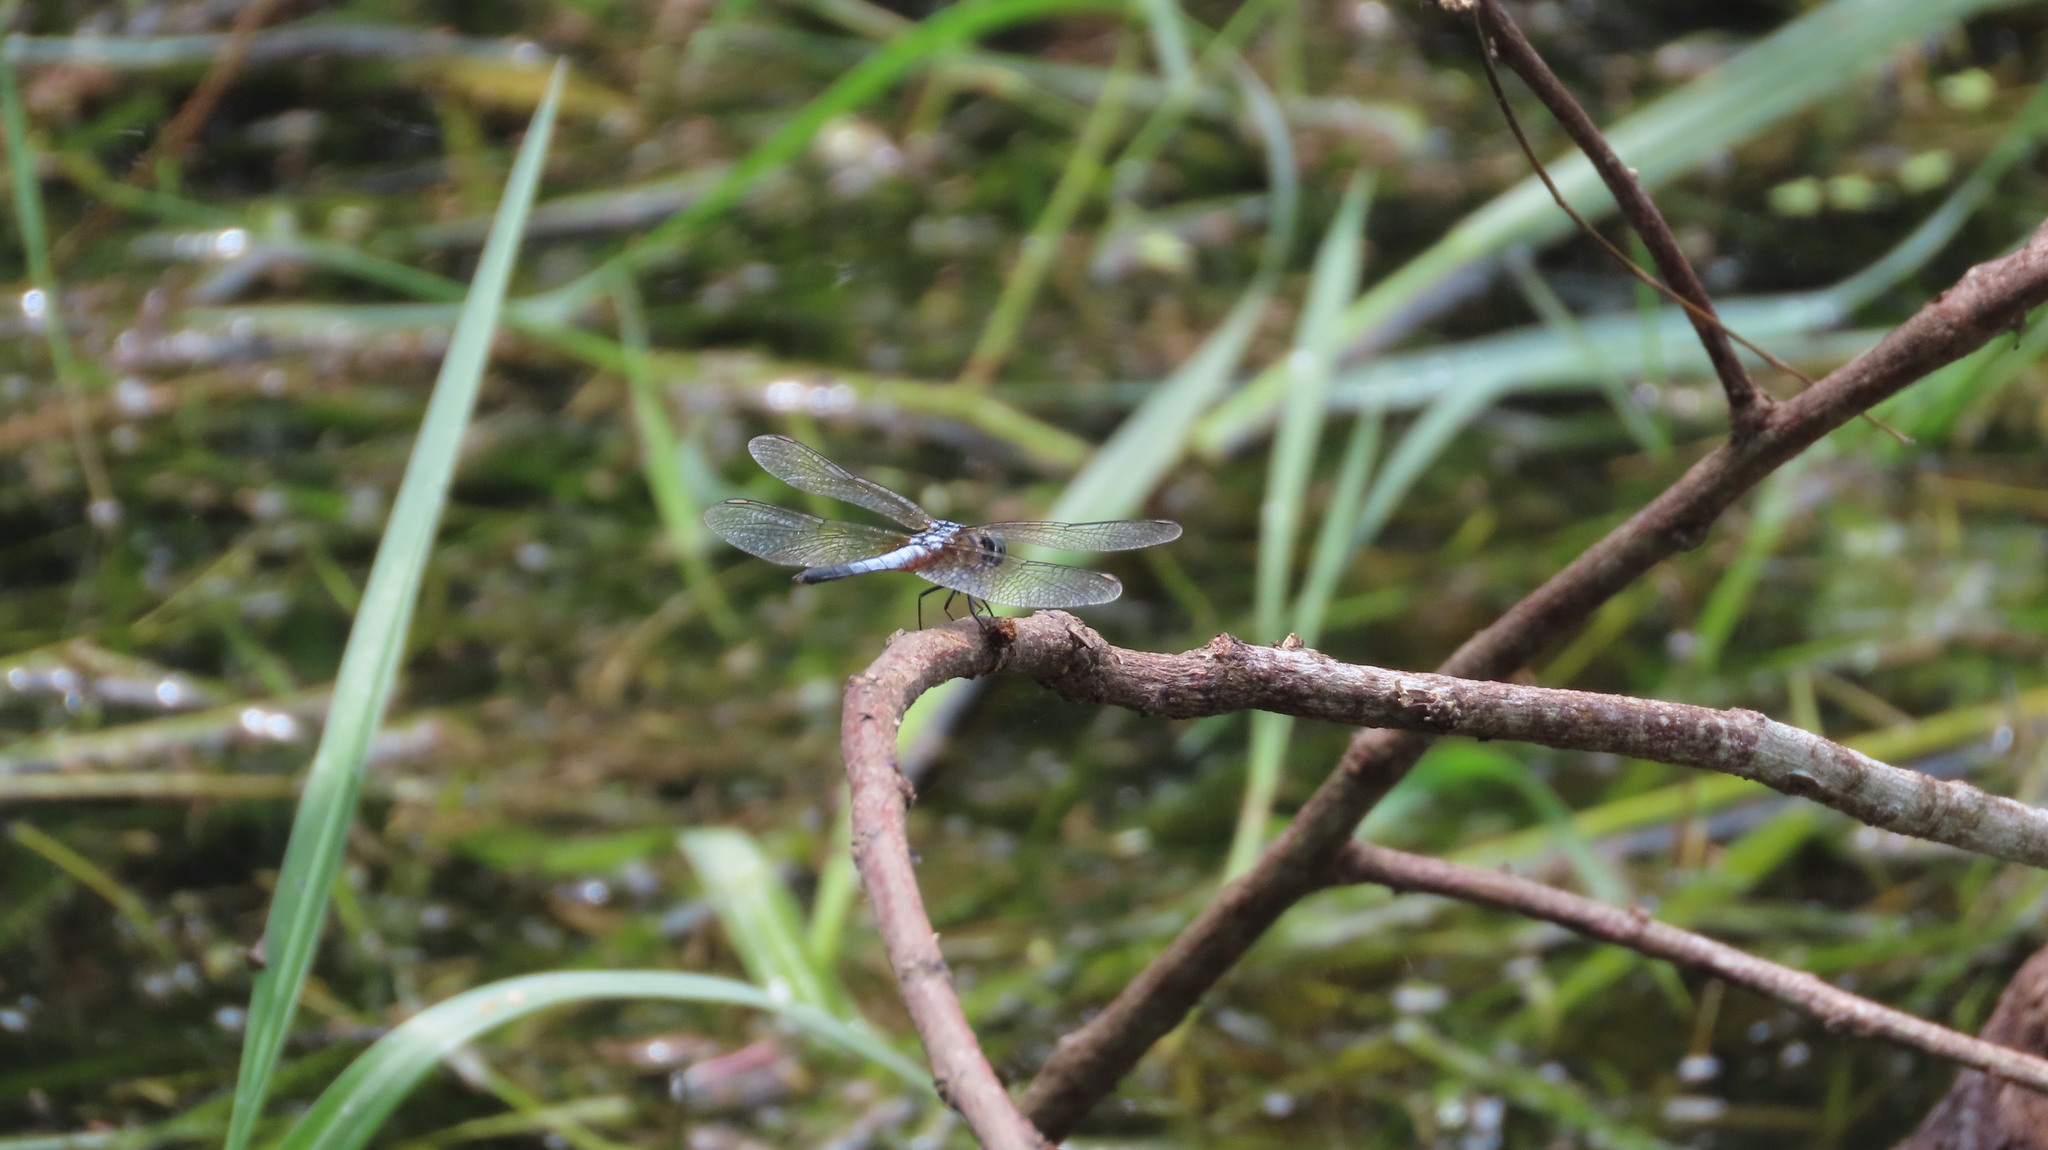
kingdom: Animalia
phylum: Arthropoda
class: Insecta
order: Odonata
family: Libellulidae
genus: Brachydiplax
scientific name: Brachydiplax chalybea
